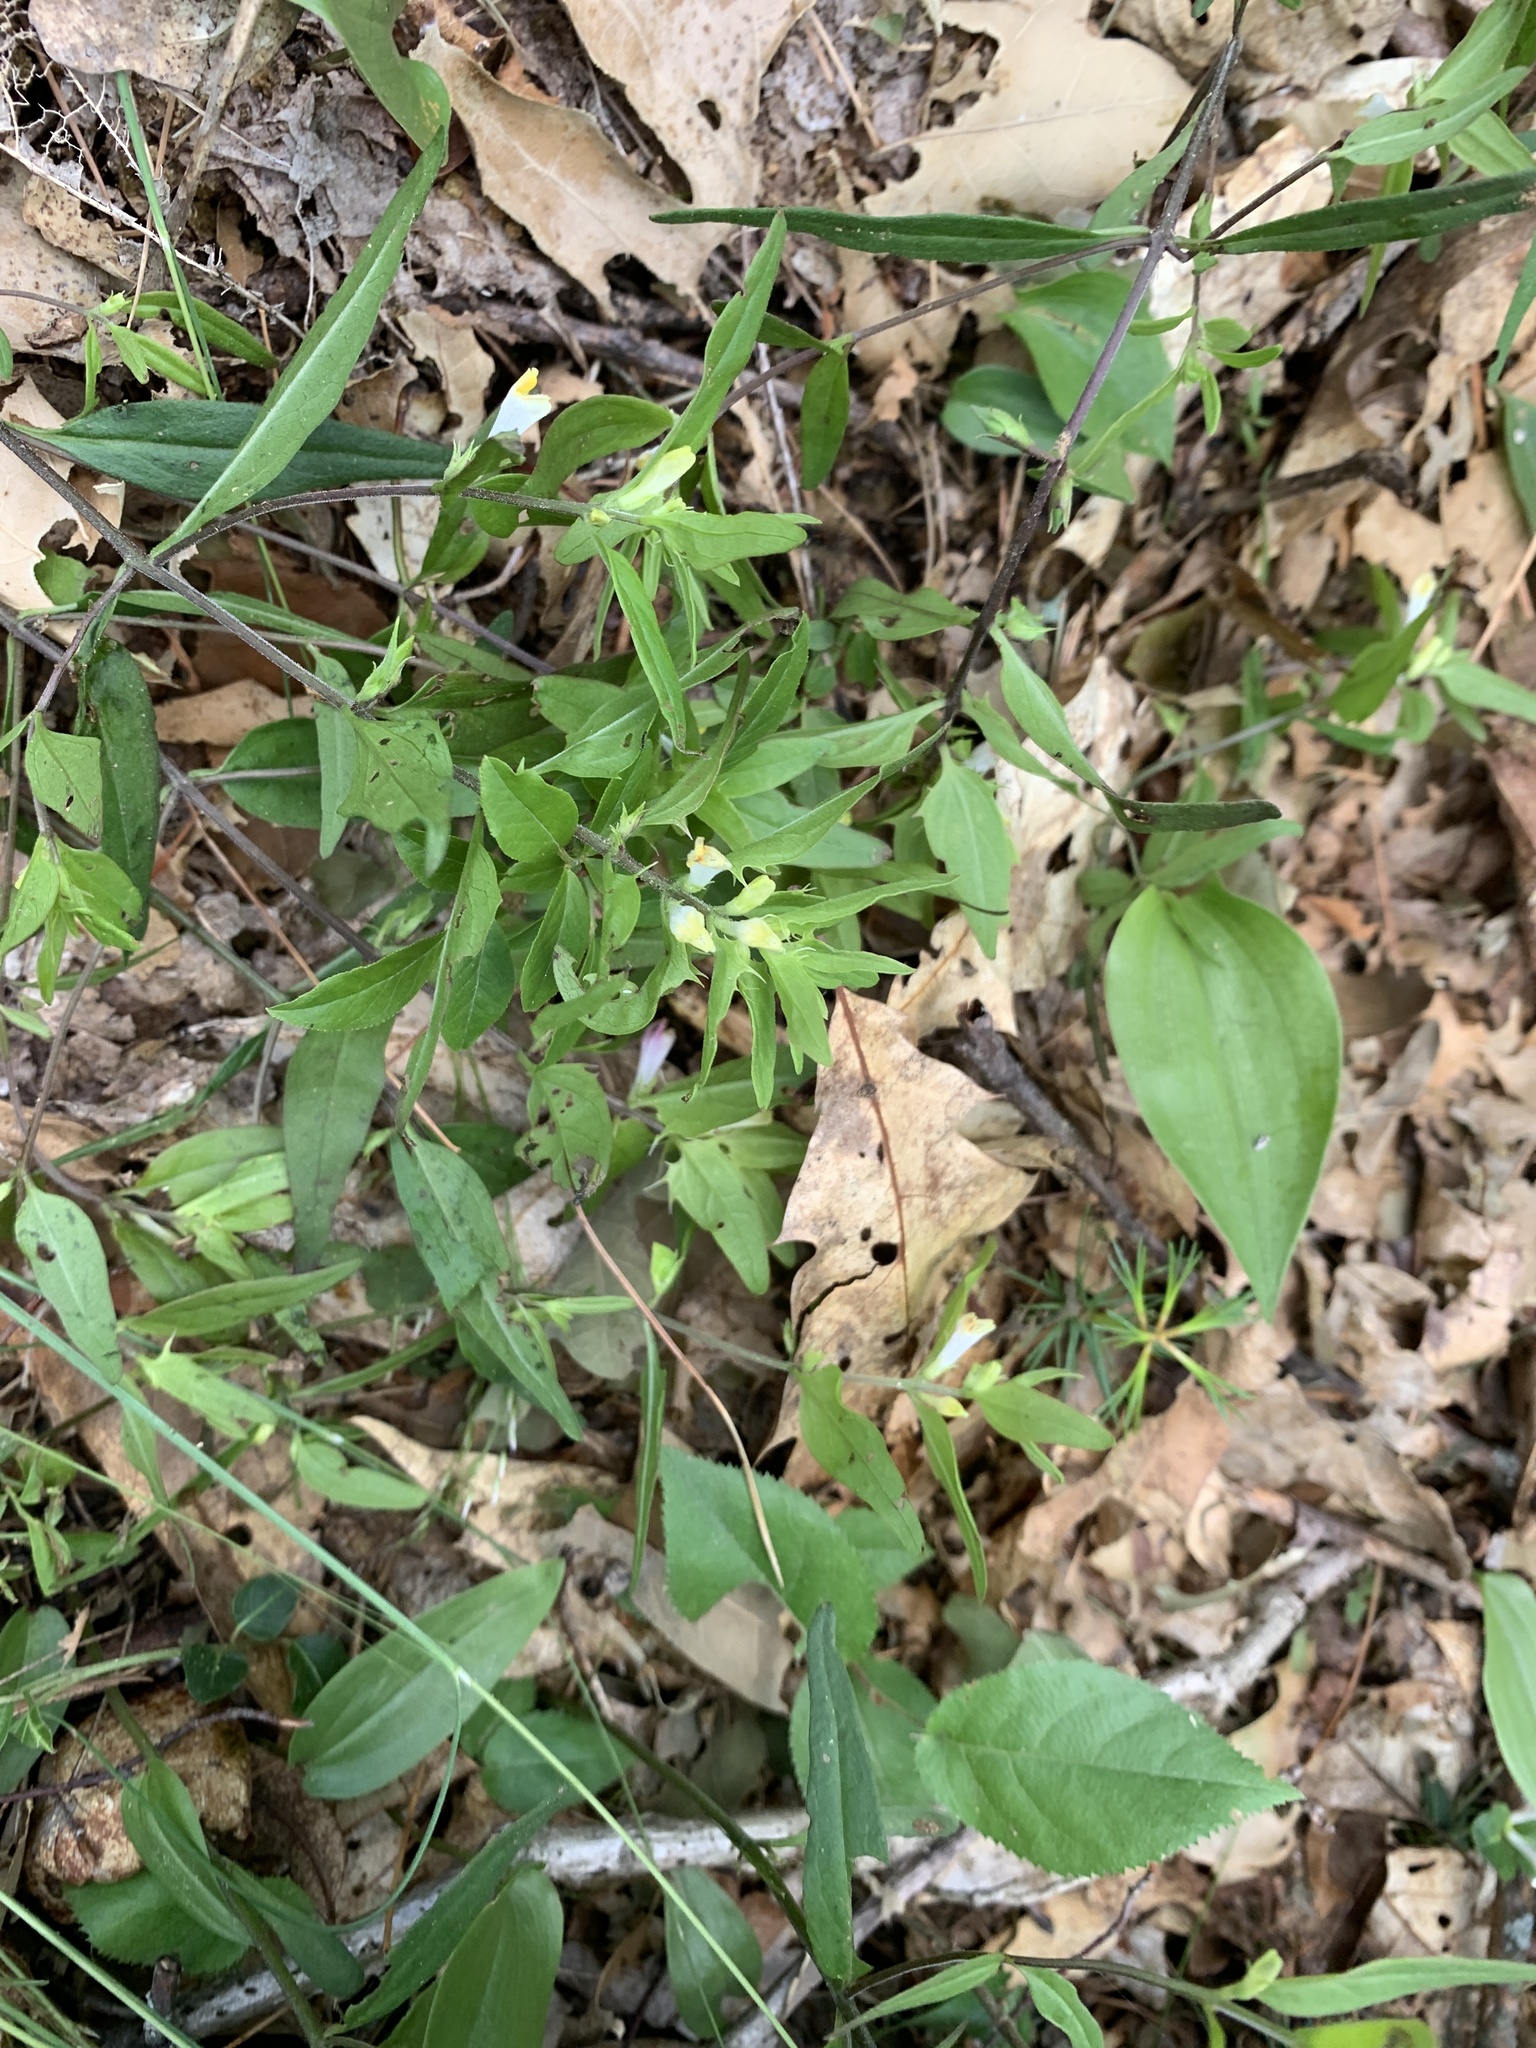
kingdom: Plantae
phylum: Tracheophyta
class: Magnoliopsida
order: Lamiales
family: Orobanchaceae
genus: Melampyrum
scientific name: Melampyrum lineare
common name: American cow-wheat
